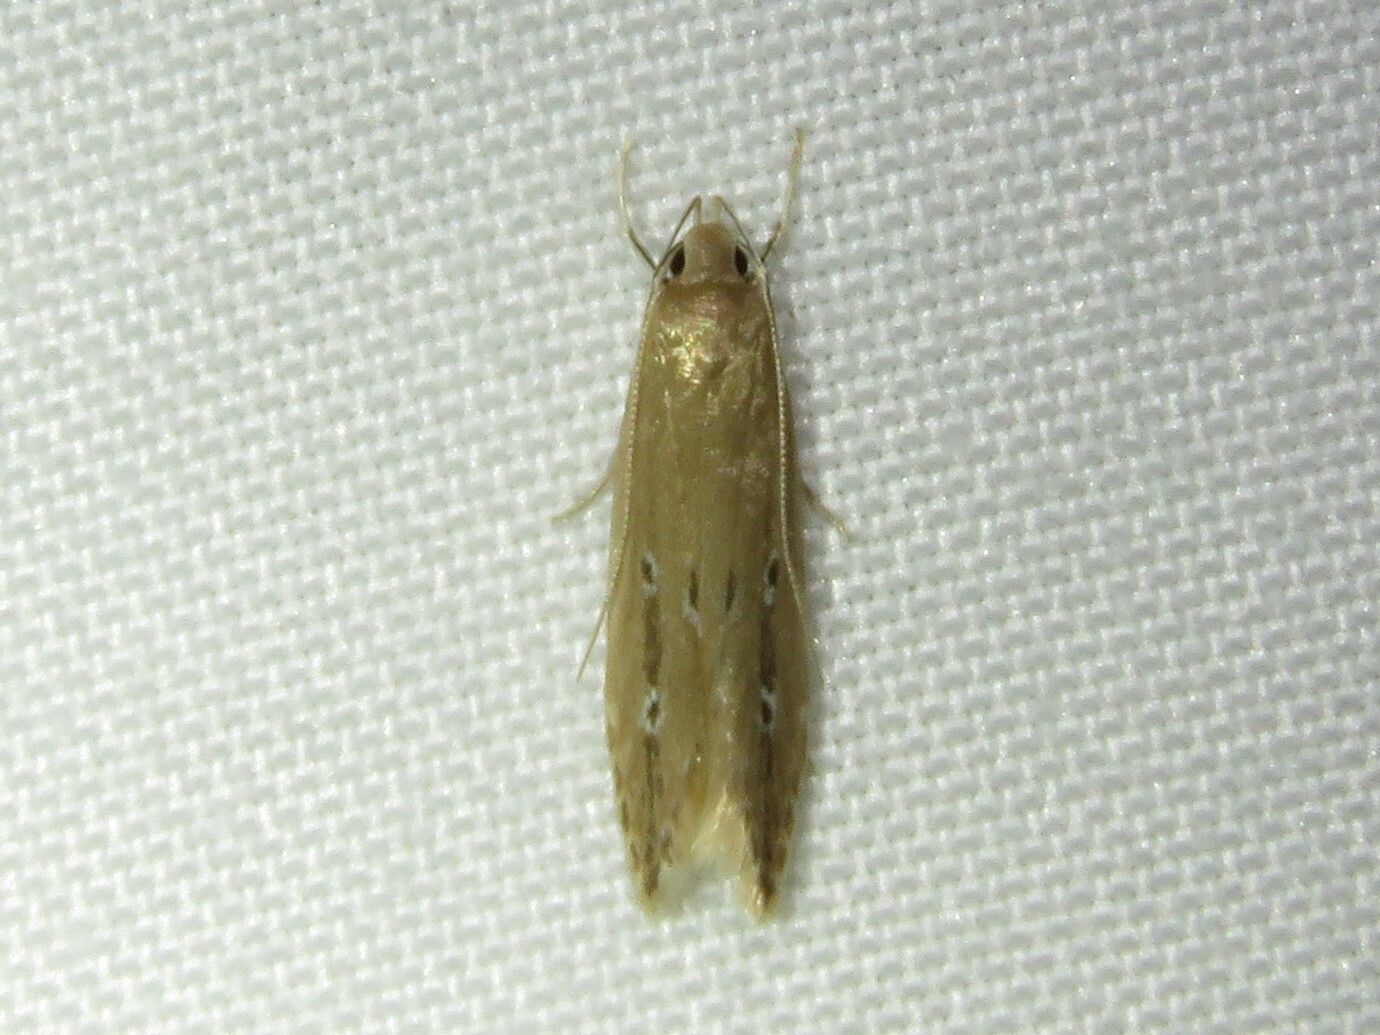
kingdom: Animalia
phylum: Arthropoda
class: Insecta
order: Lepidoptera
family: Cosmopterigidae
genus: Limnaecia
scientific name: Limnaecia phragmitella
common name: Bulrush cosmet
